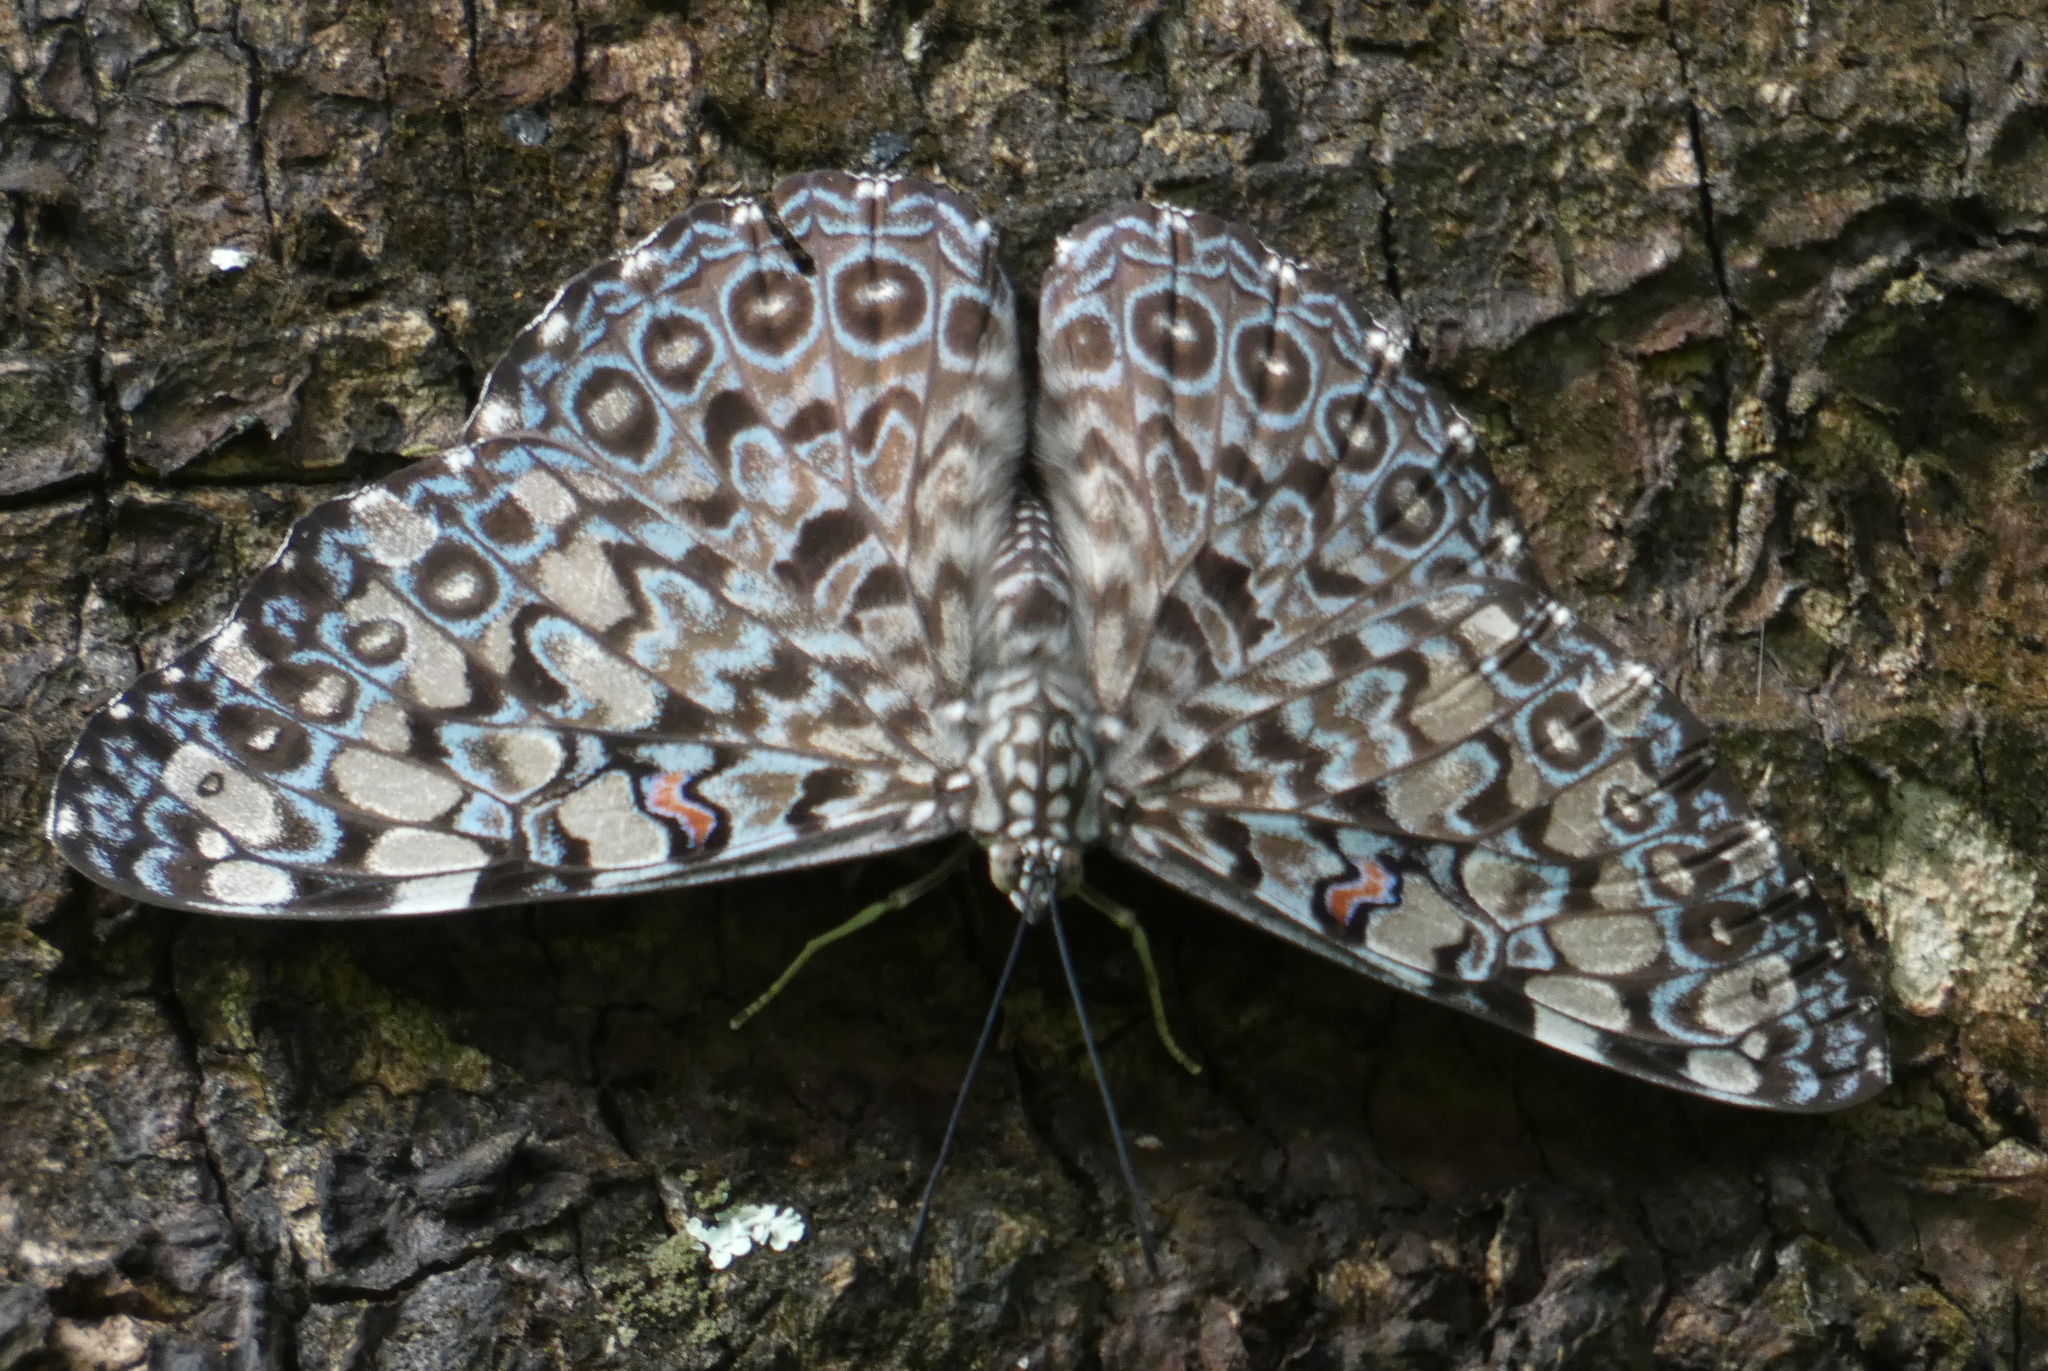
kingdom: Animalia
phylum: Arthropoda
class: Insecta
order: Lepidoptera
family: Nymphalidae
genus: Hamadryas
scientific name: Hamadryas feronia
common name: Variable cracker
